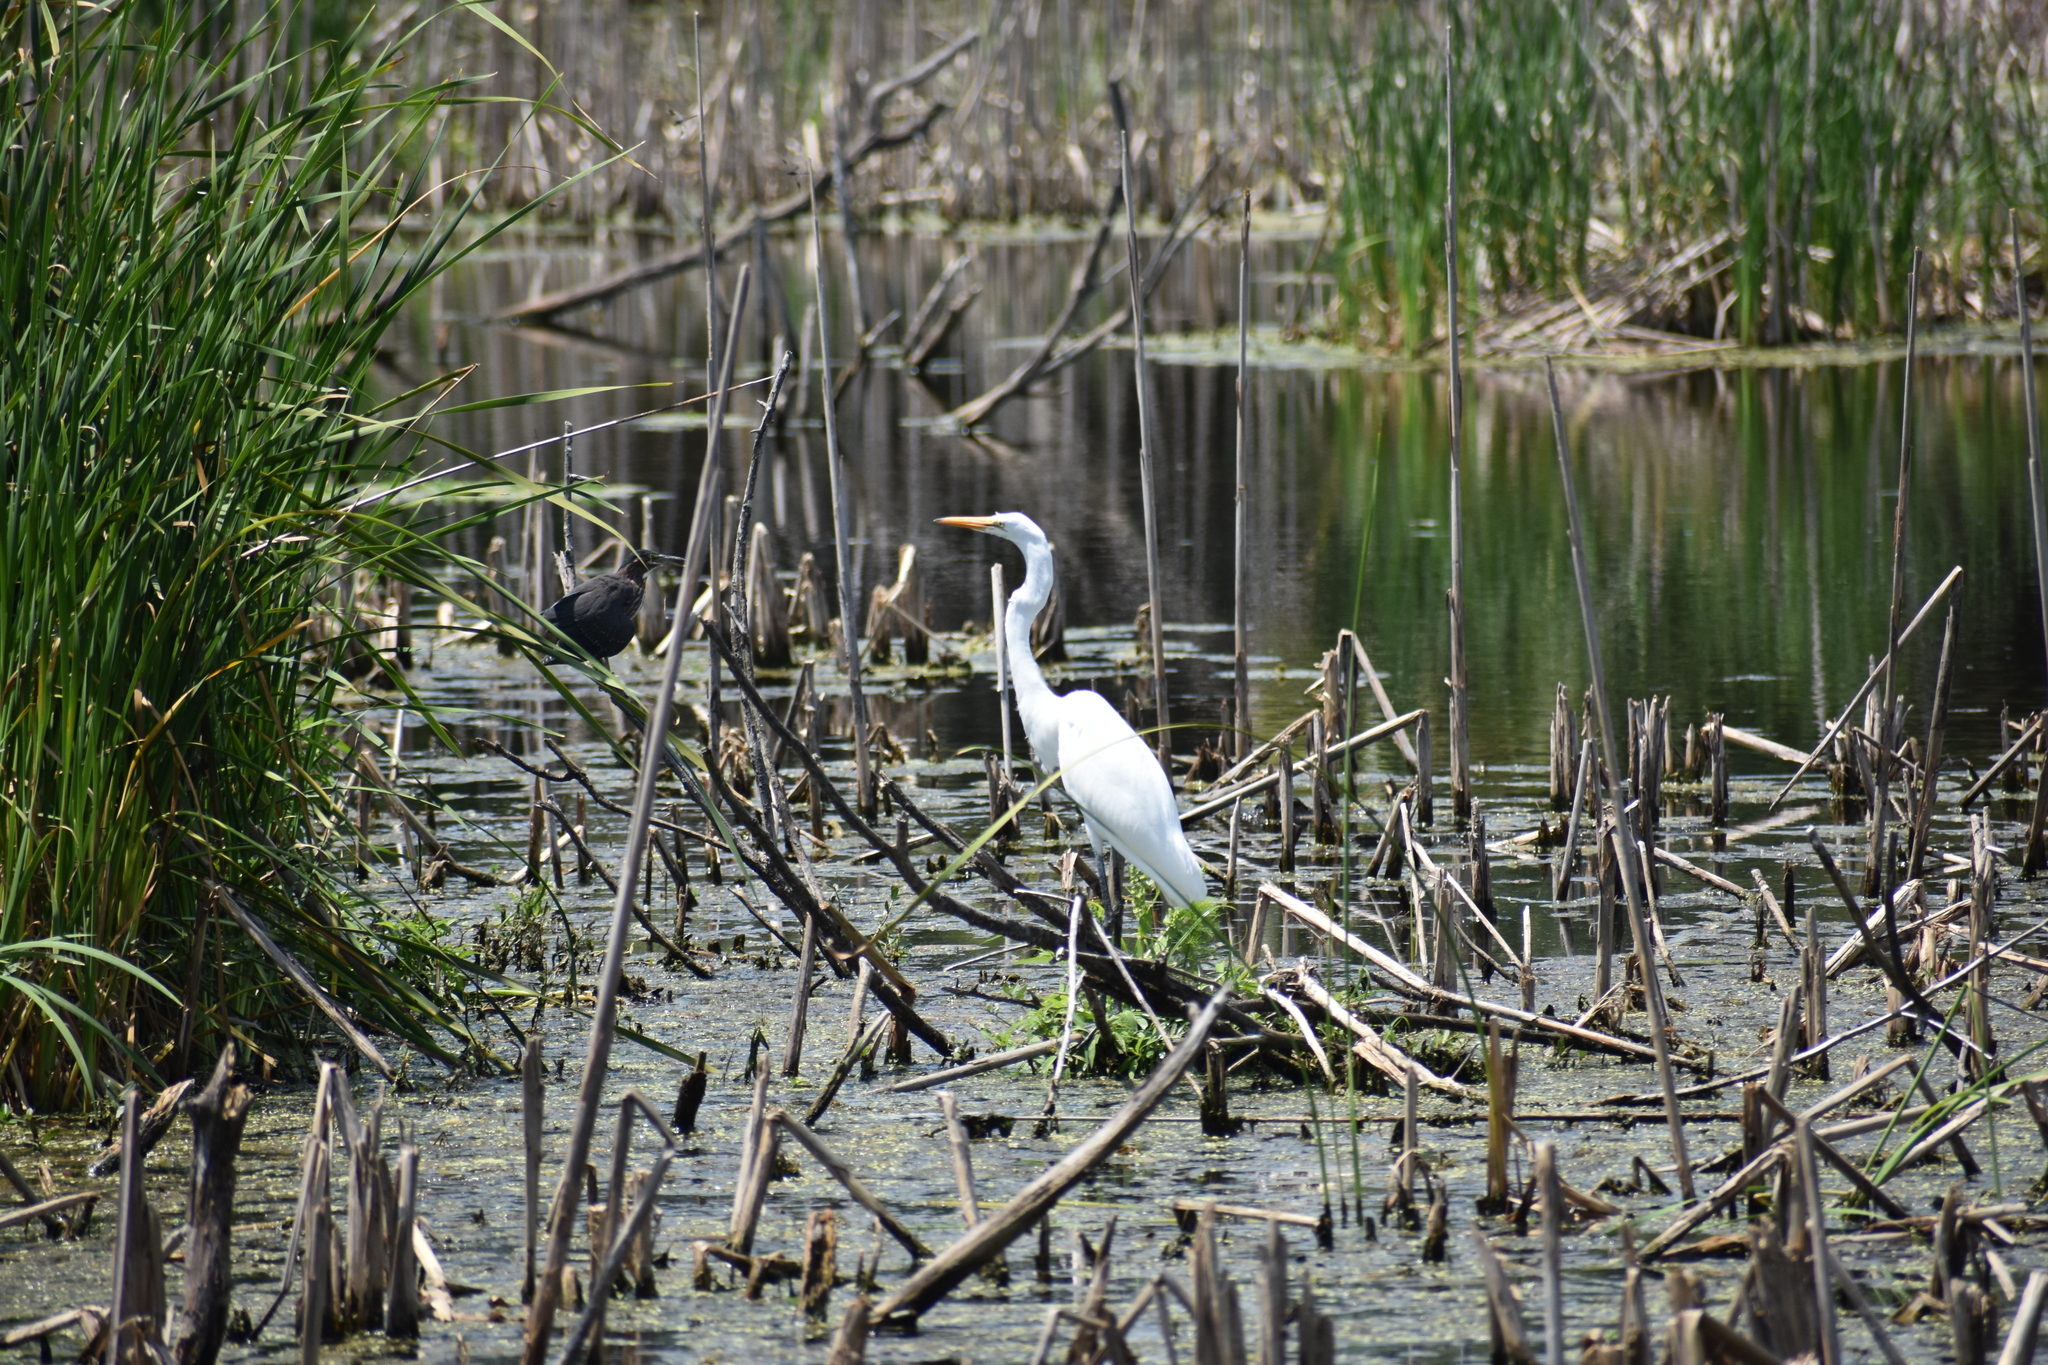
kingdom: Animalia
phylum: Chordata
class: Aves
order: Pelecaniformes
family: Ardeidae
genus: Ardea
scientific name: Ardea alba
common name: Great egret
